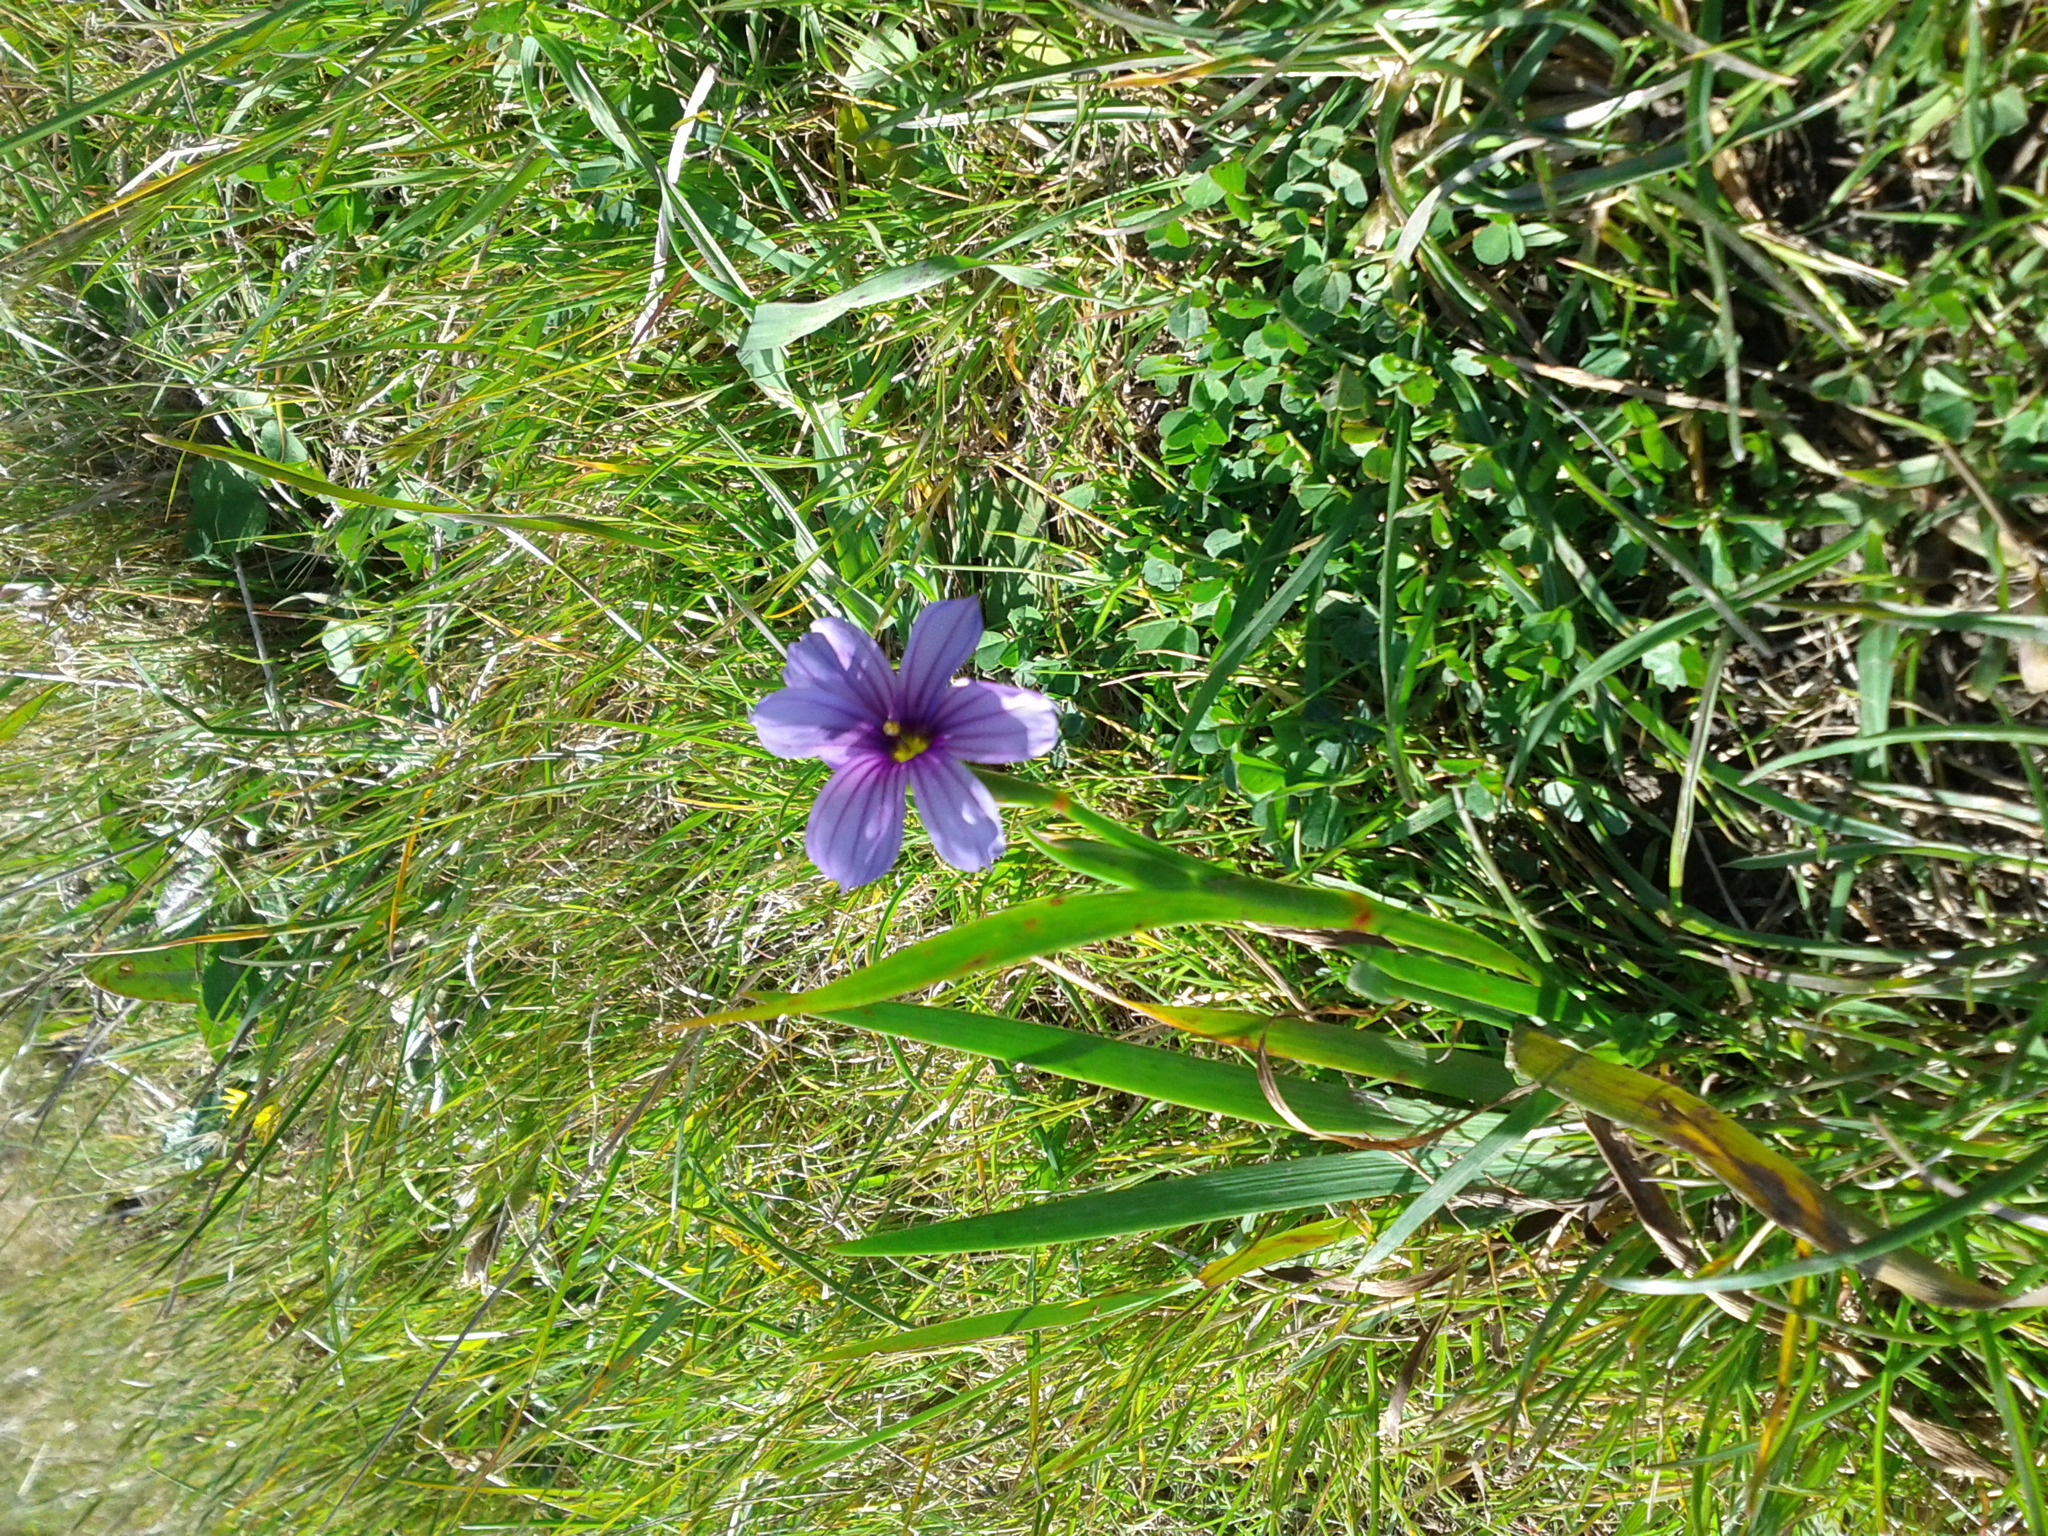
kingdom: Plantae
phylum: Tracheophyta
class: Liliopsida
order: Asparagales
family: Iridaceae
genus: Sisyrinchium
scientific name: Sisyrinchium bellum
